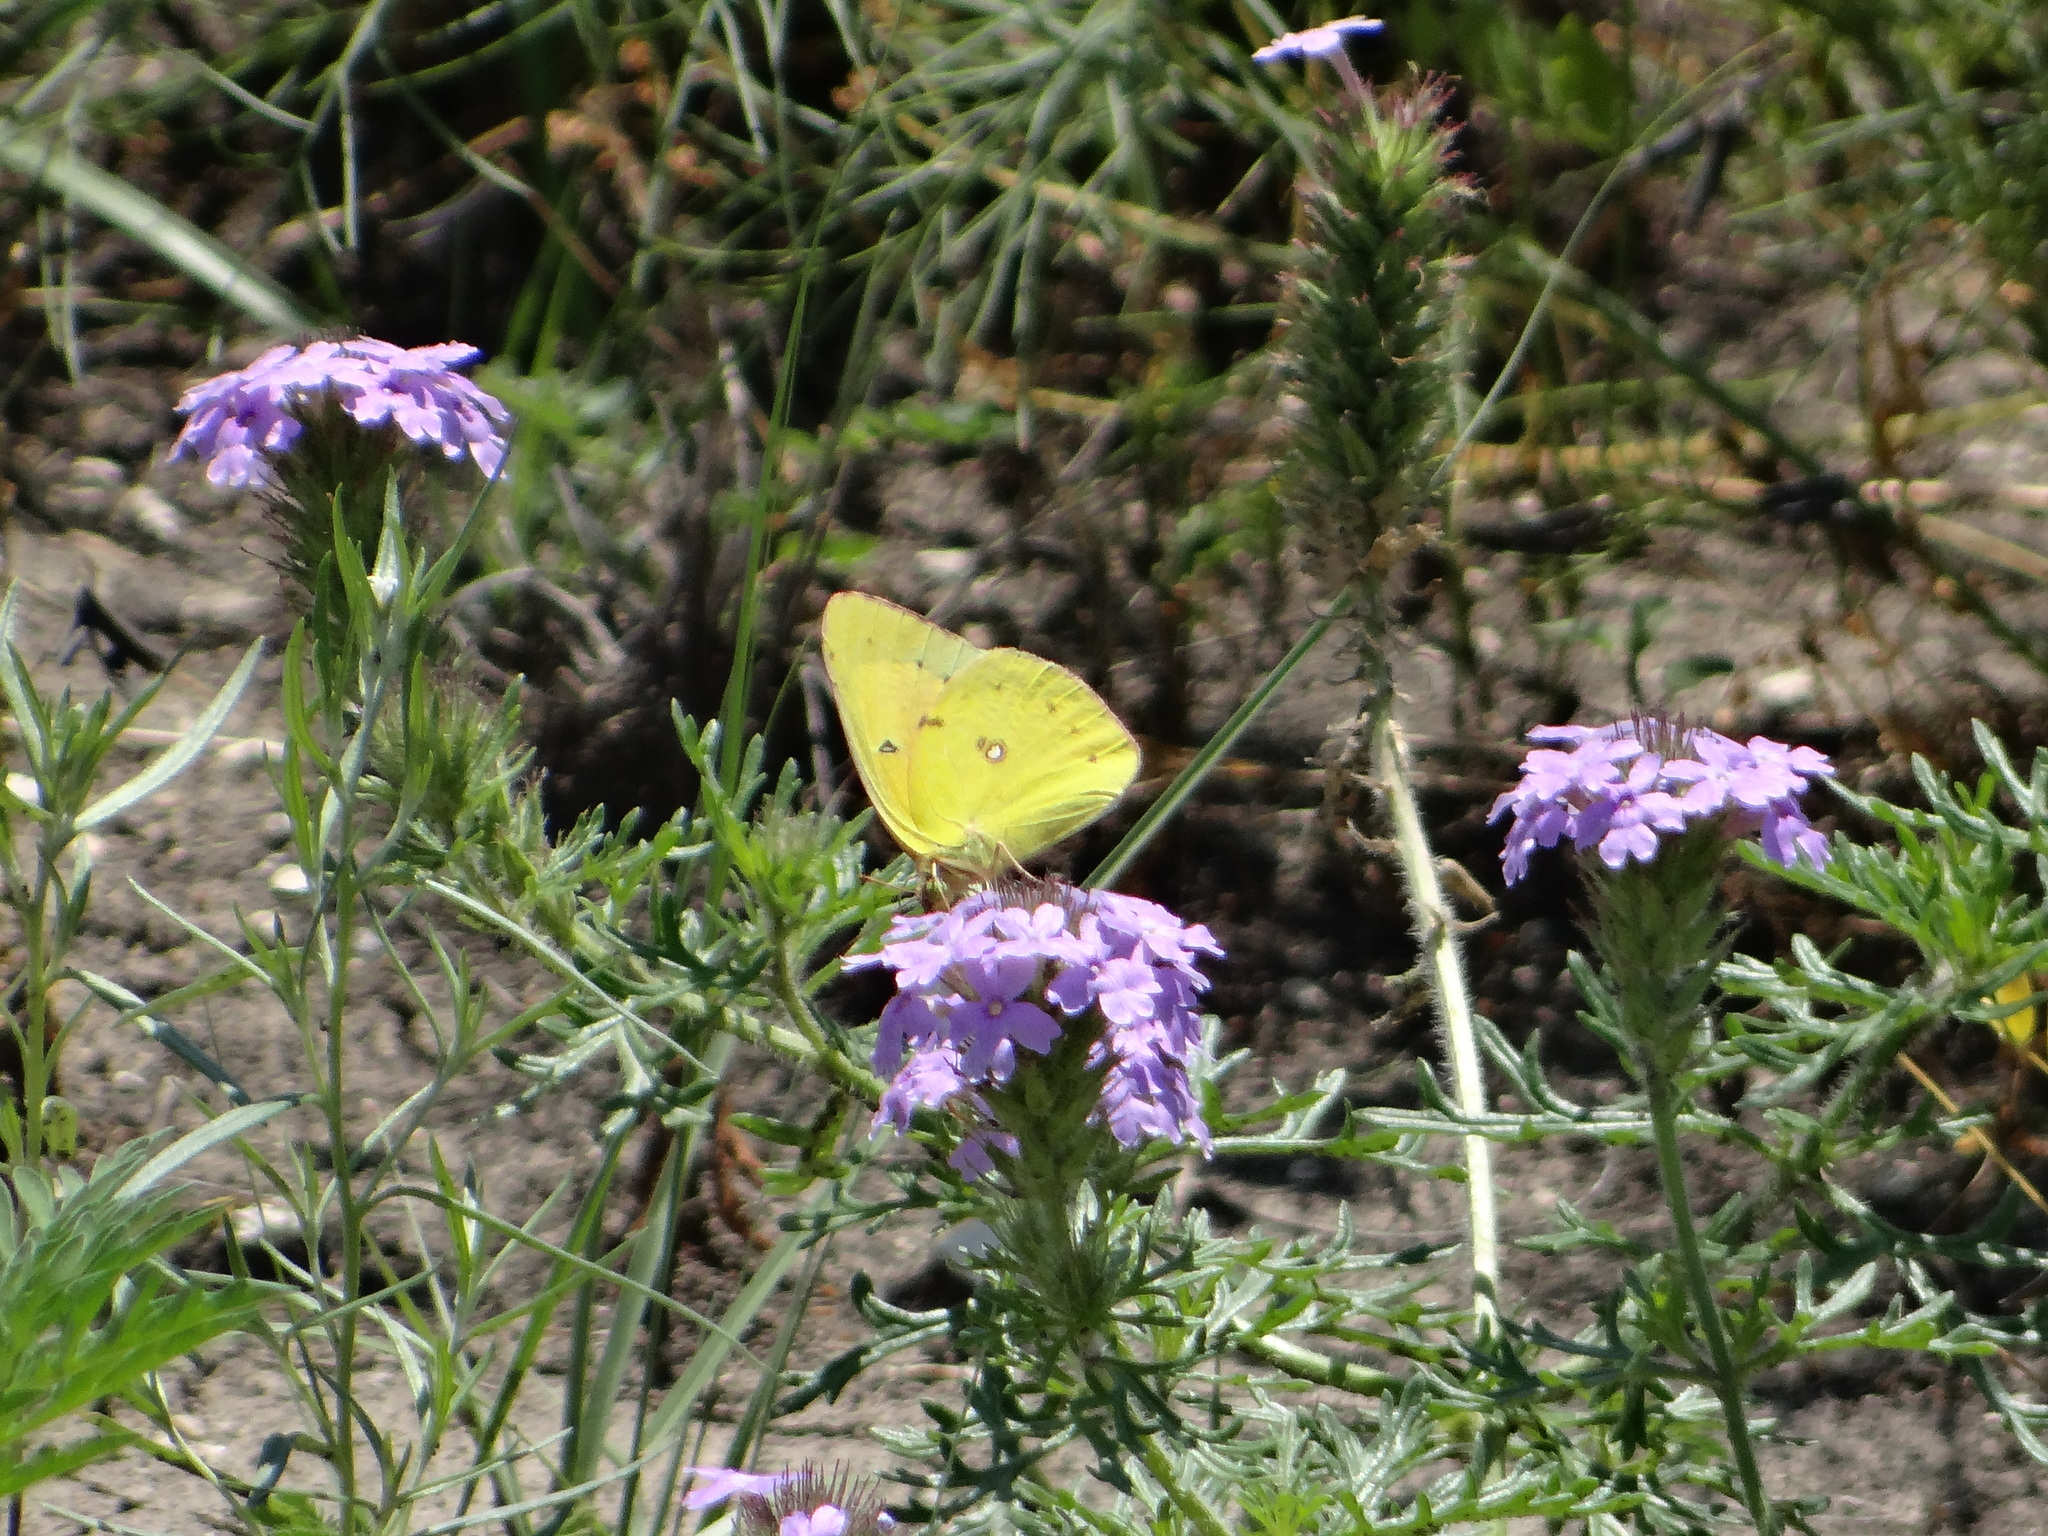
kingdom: Animalia
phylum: Arthropoda
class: Insecta
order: Lepidoptera
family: Pieridae
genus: Colias
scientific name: Colias eurytheme
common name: Alfalfa butterfly
